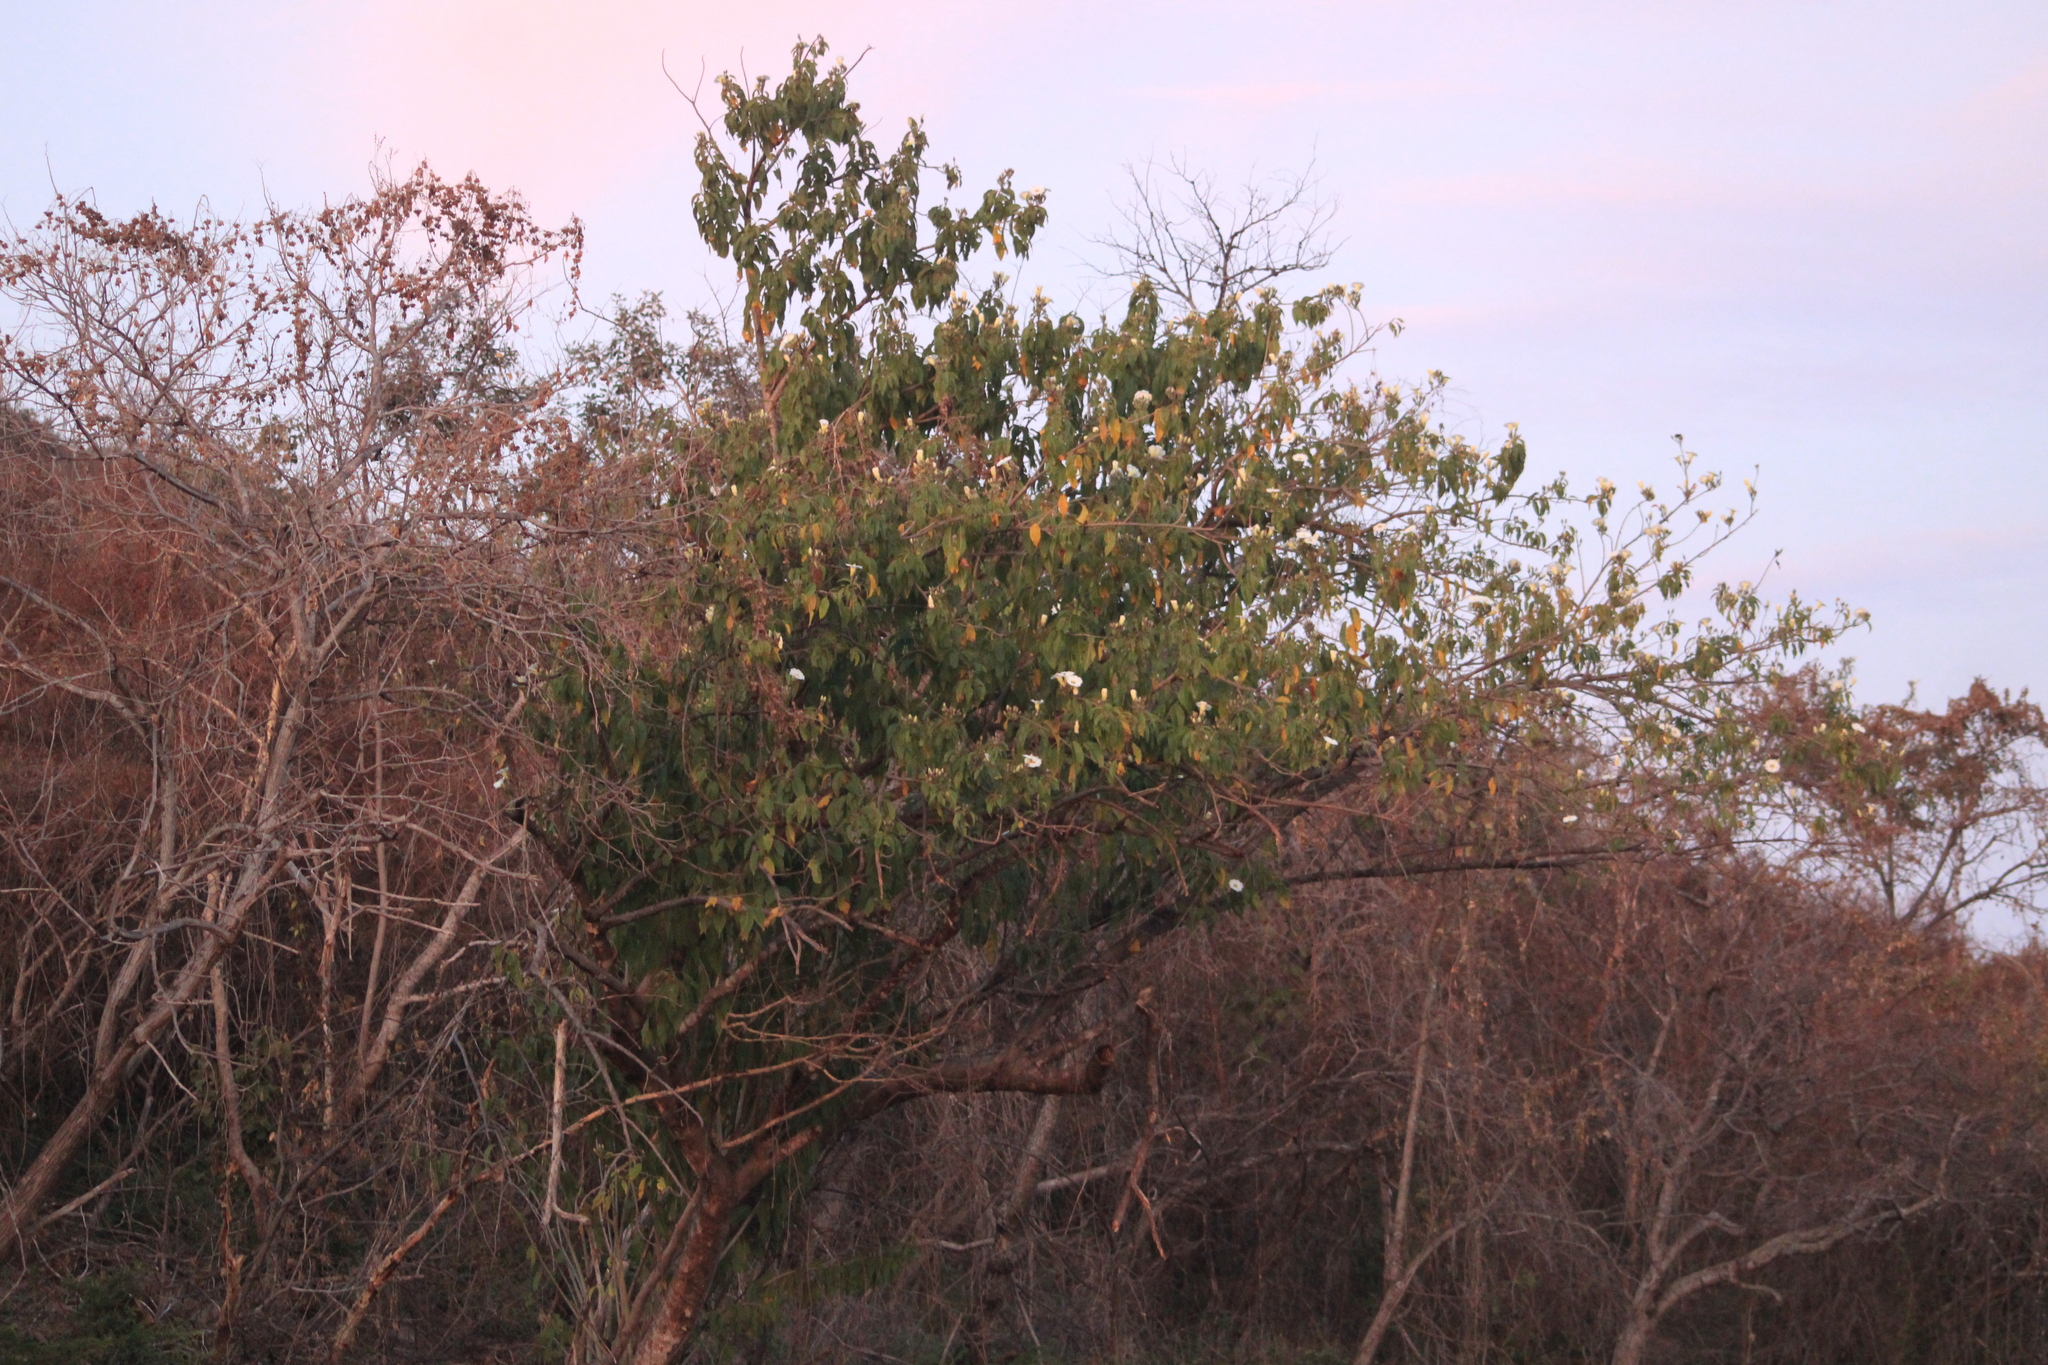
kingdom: Plantae
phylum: Tracheophyta
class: Magnoliopsida
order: Solanales
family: Convolvulaceae
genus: Ipomoea
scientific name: Ipomoea pauciflora
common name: Tree morningglory
